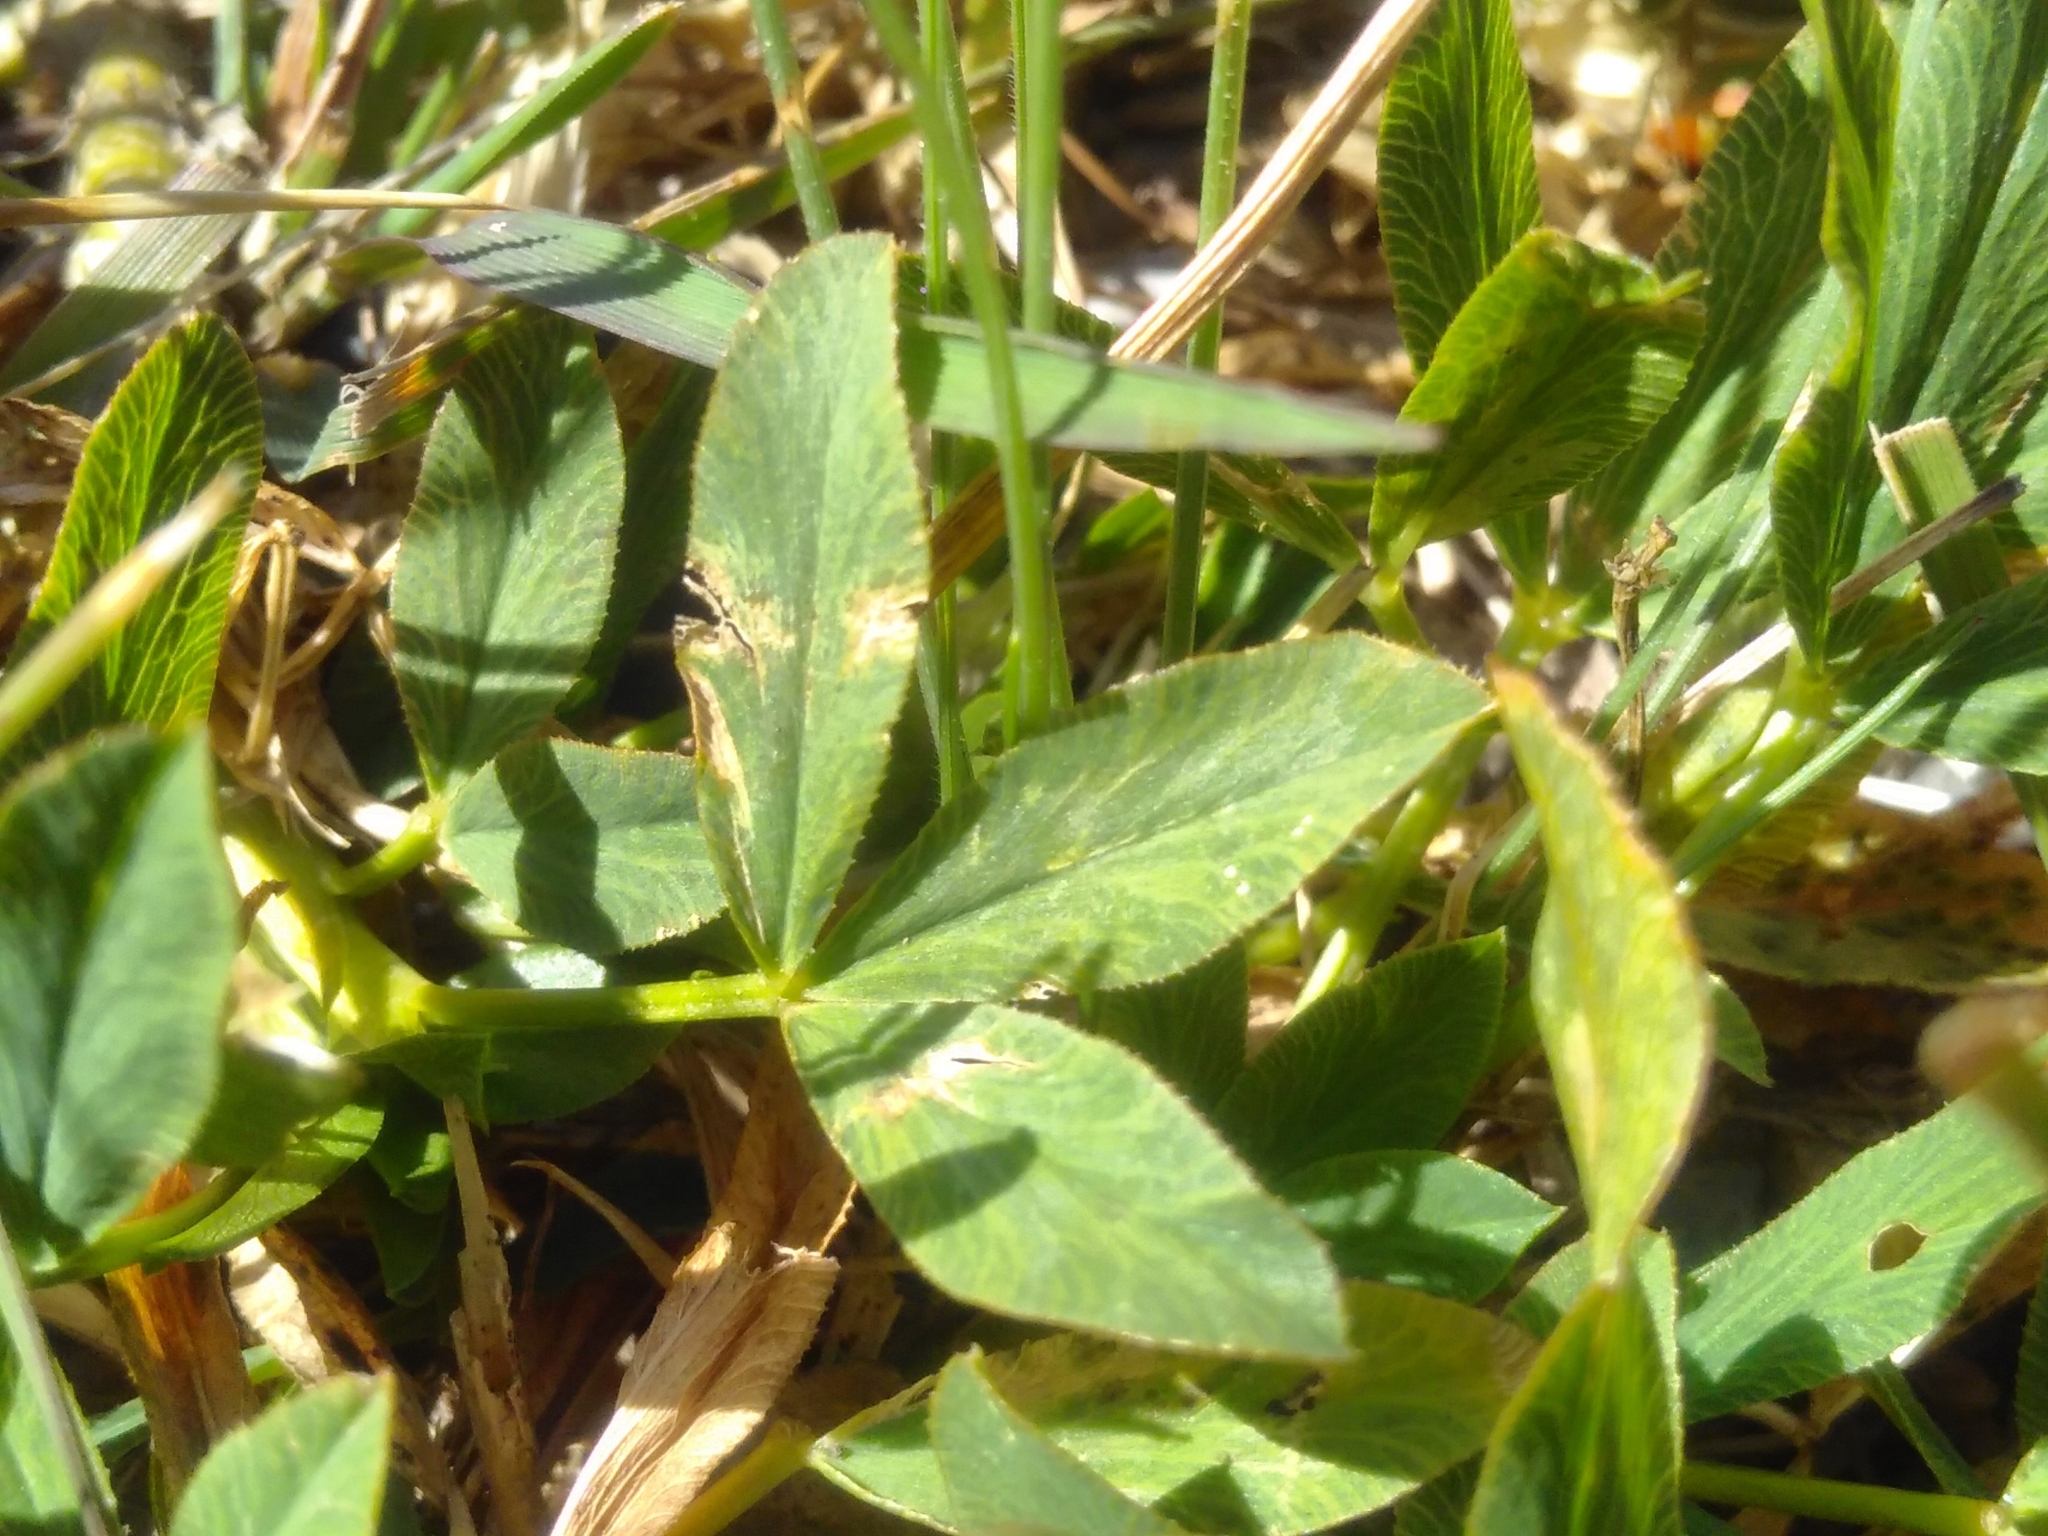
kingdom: Plantae
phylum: Tracheophyta
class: Magnoliopsida
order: Fabales
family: Fabaceae
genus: Trifolium
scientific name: Trifolium alpinum
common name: Alpine clover
